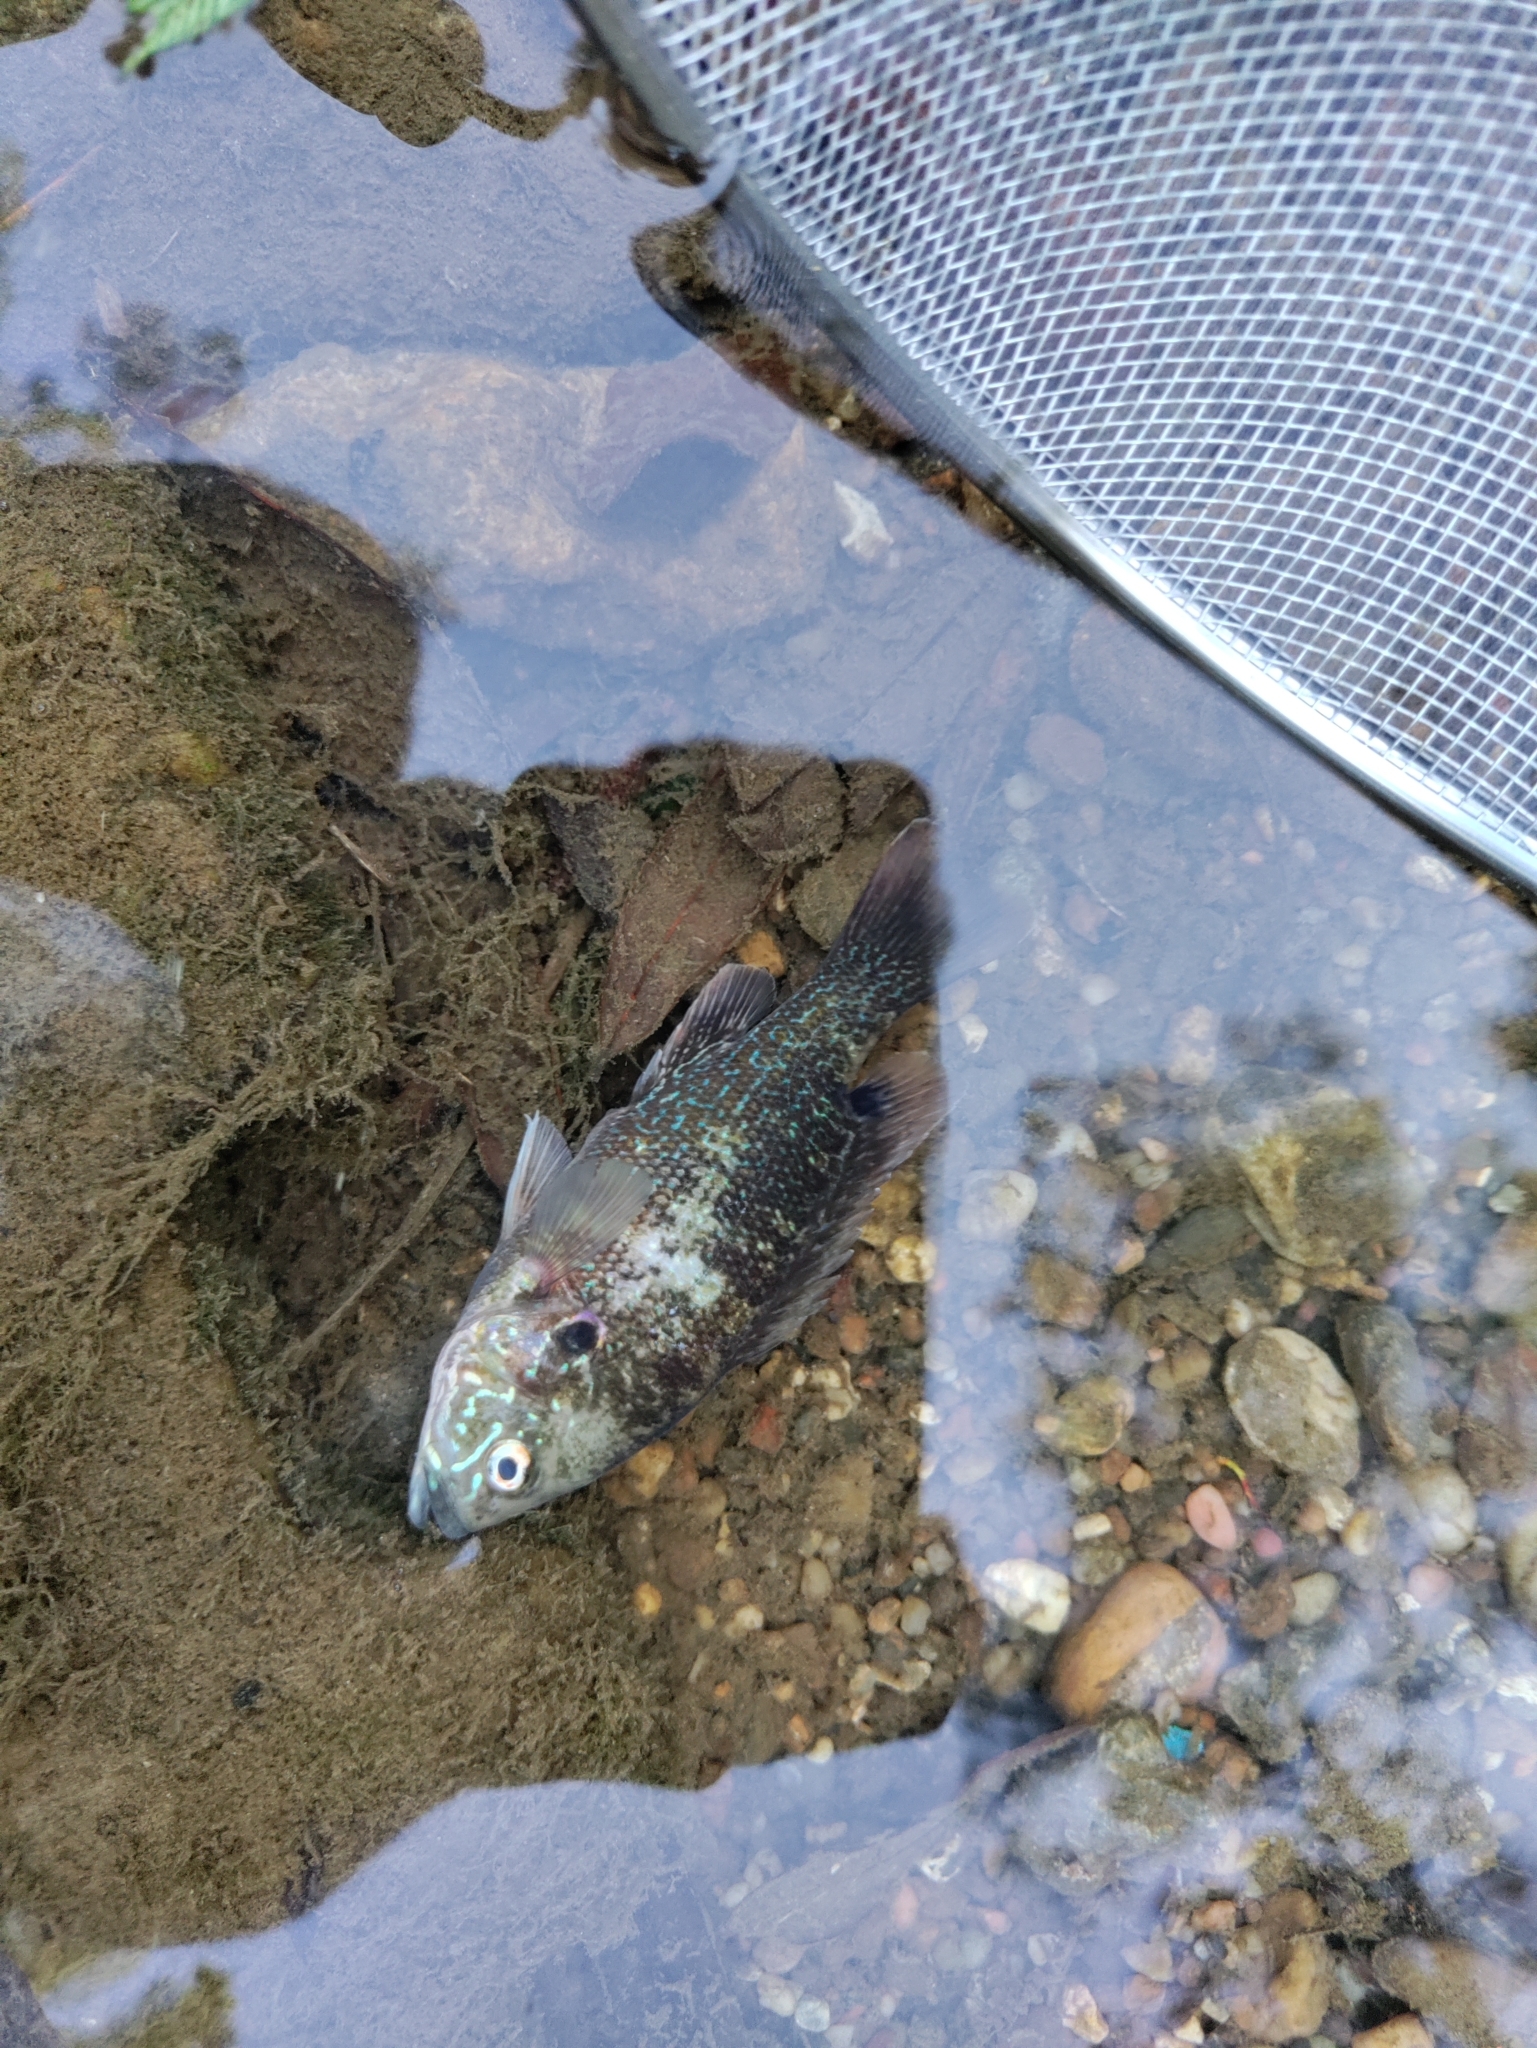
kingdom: Animalia
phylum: Chordata
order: Perciformes
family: Centrarchidae
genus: Lepomis
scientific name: Lepomis cyanellus
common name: Green sunfish
